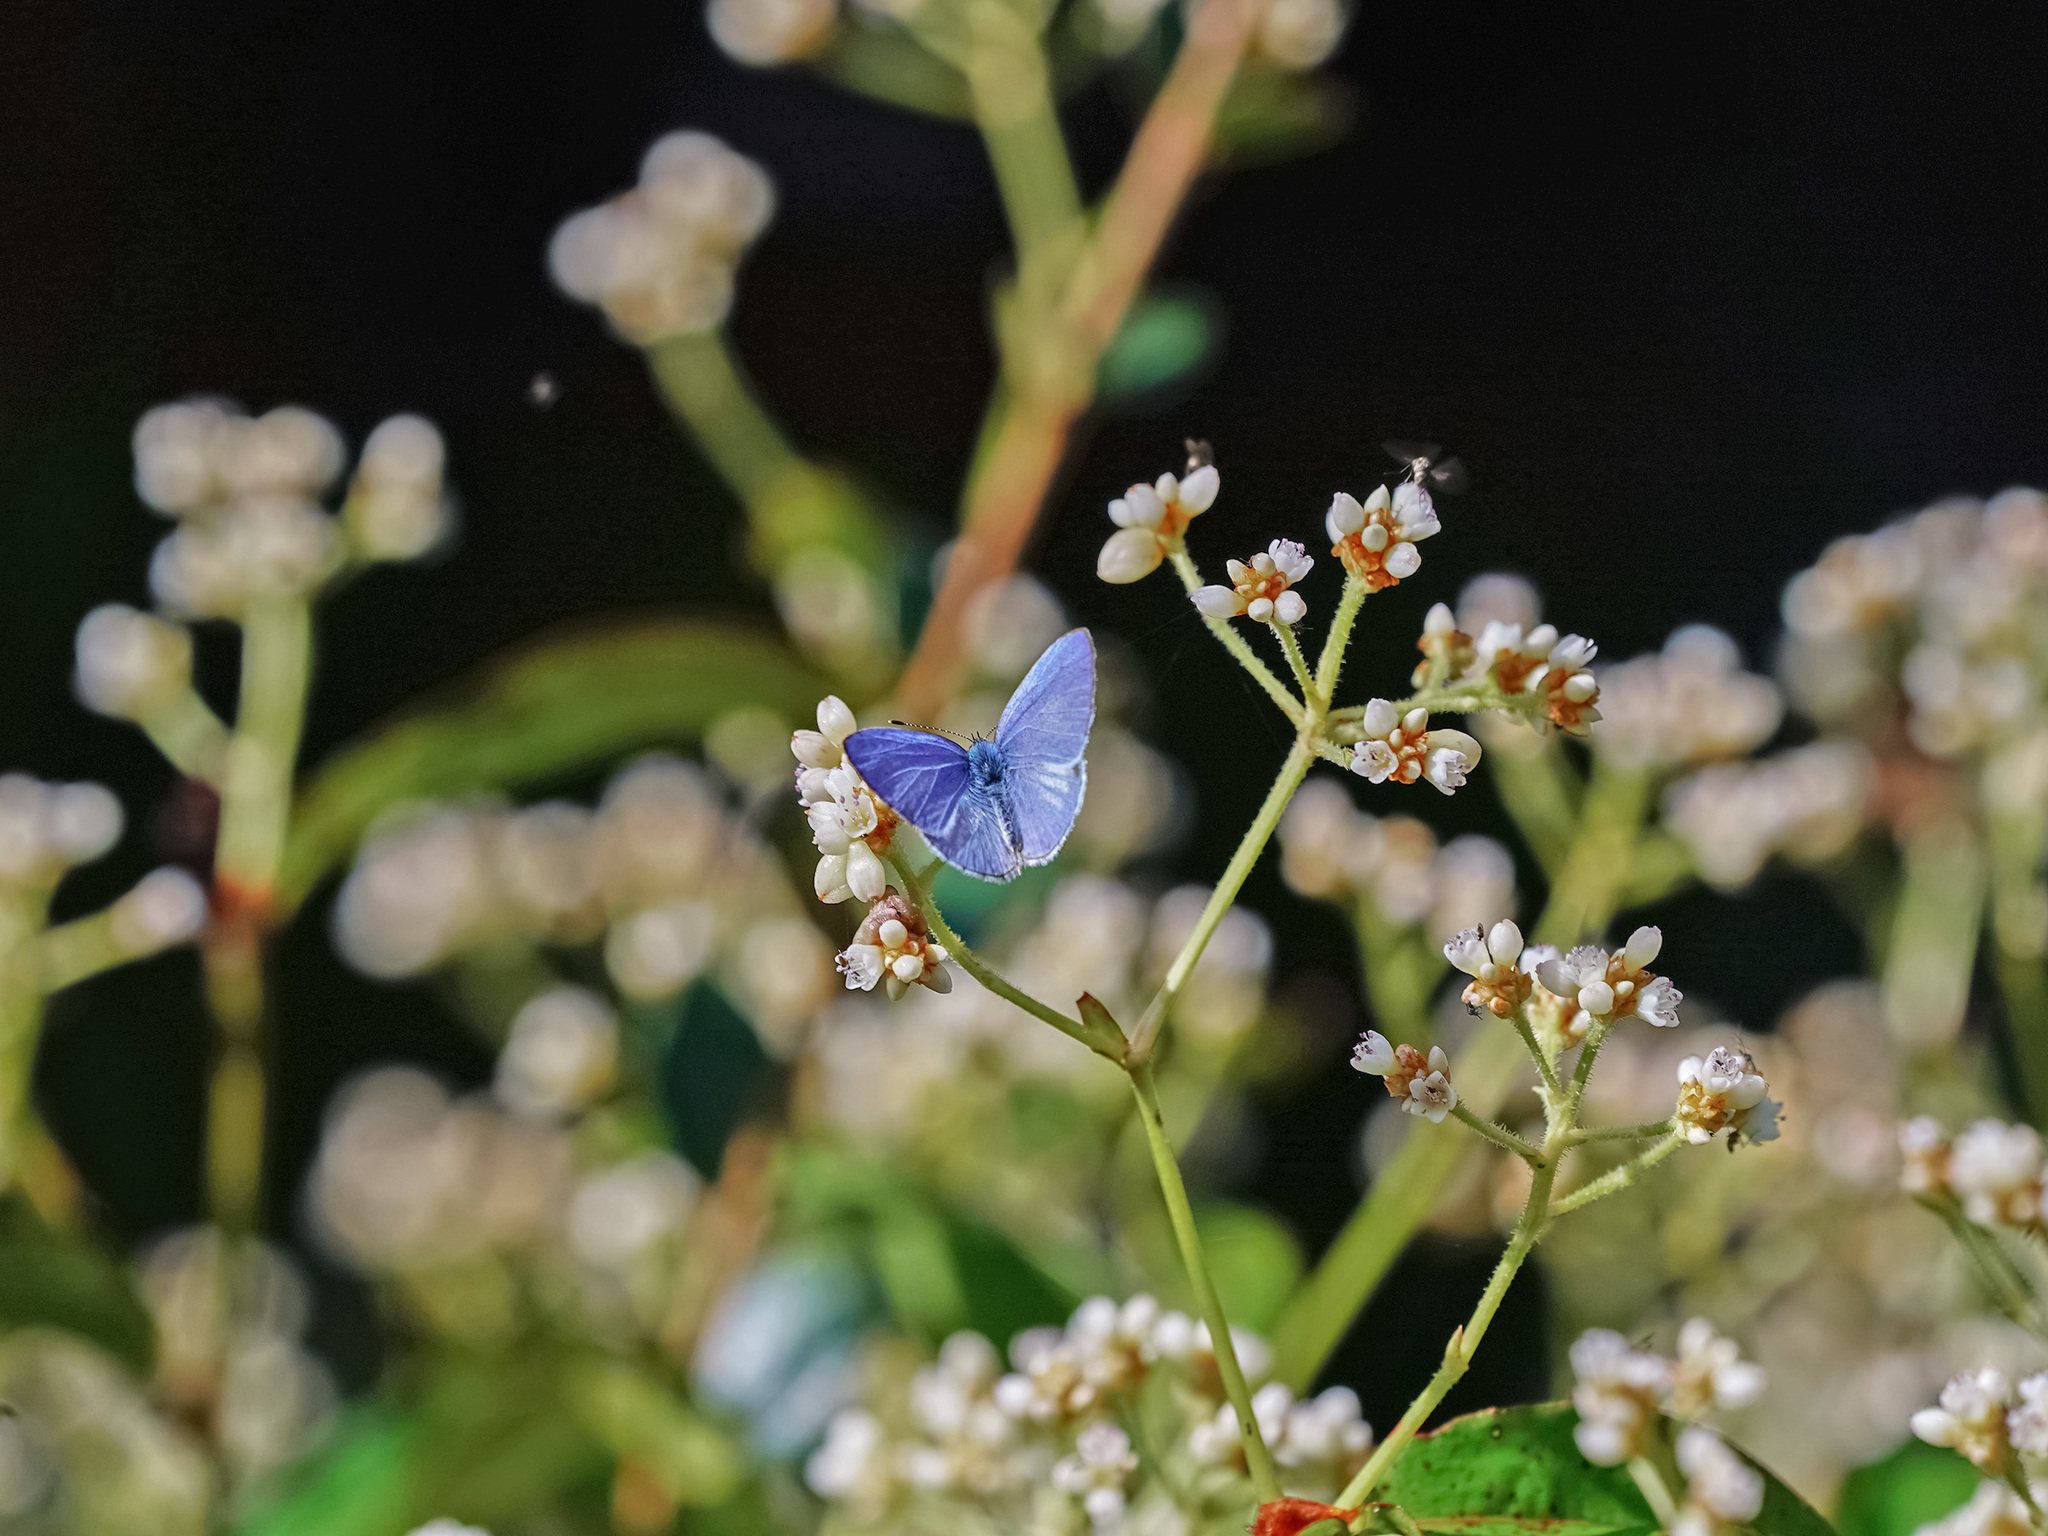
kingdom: Animalia
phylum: Arthropoda
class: Insecta
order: Lepidoptera
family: Lycaenidae
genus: Udara
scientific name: Udara dilectus
